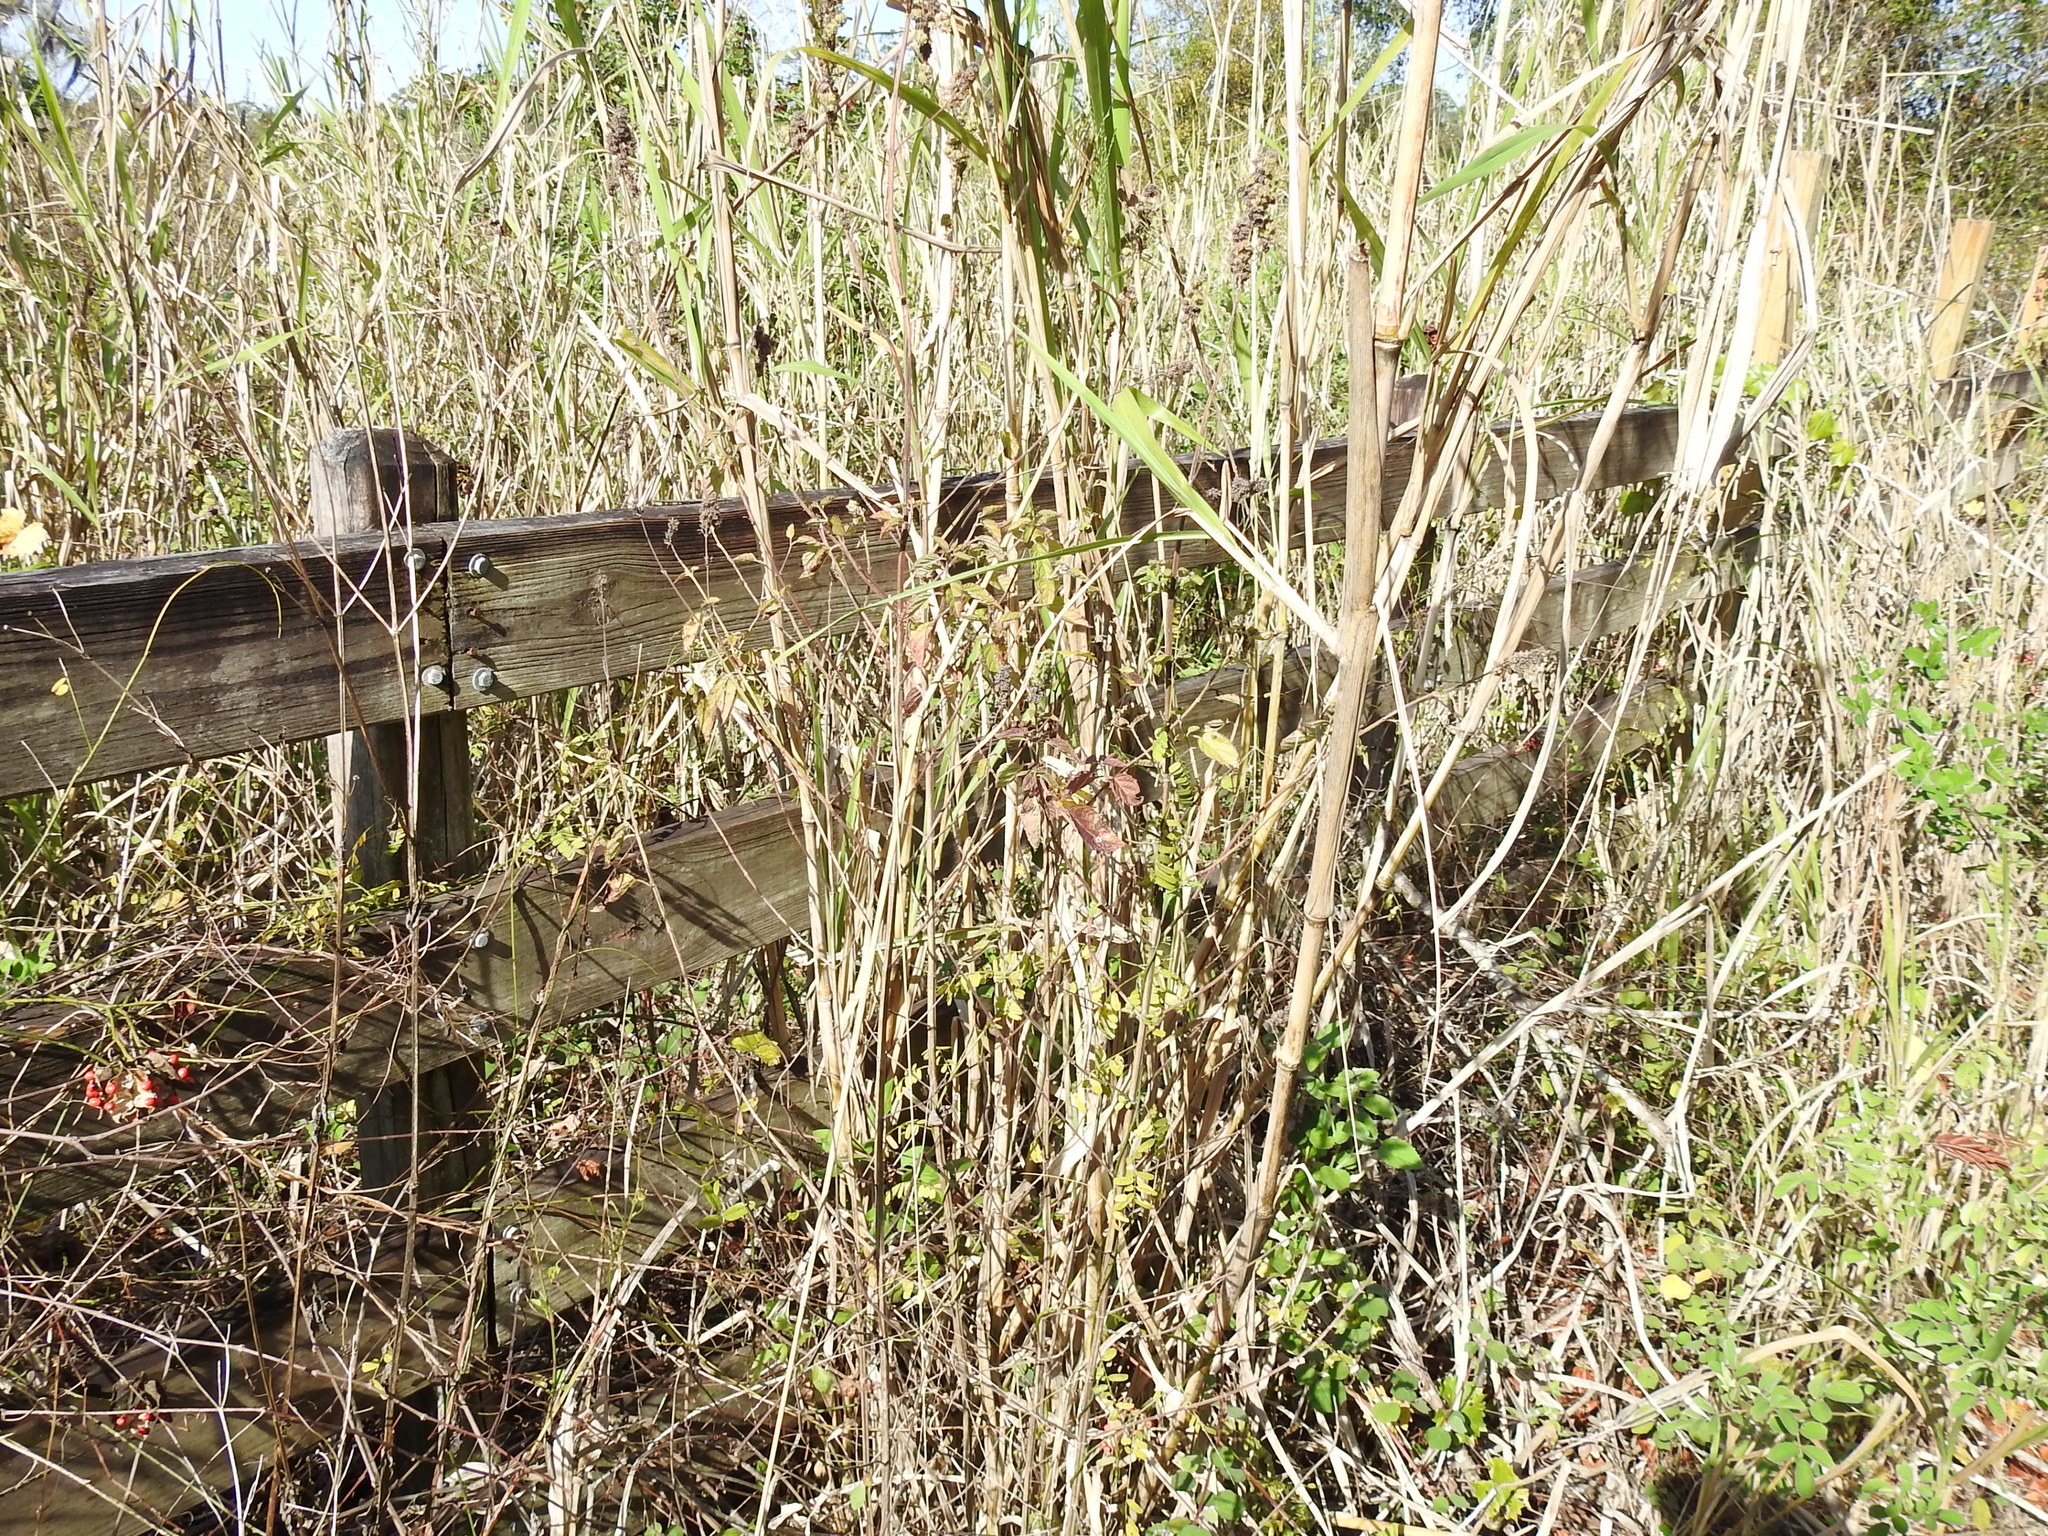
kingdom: Plantae
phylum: Tracheophyta
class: Magnoliopsida
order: Lamiales
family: Lamiaceae
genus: Mesosphaerum
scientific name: Mesosphaerum pectinatum
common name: Comb hyptis
